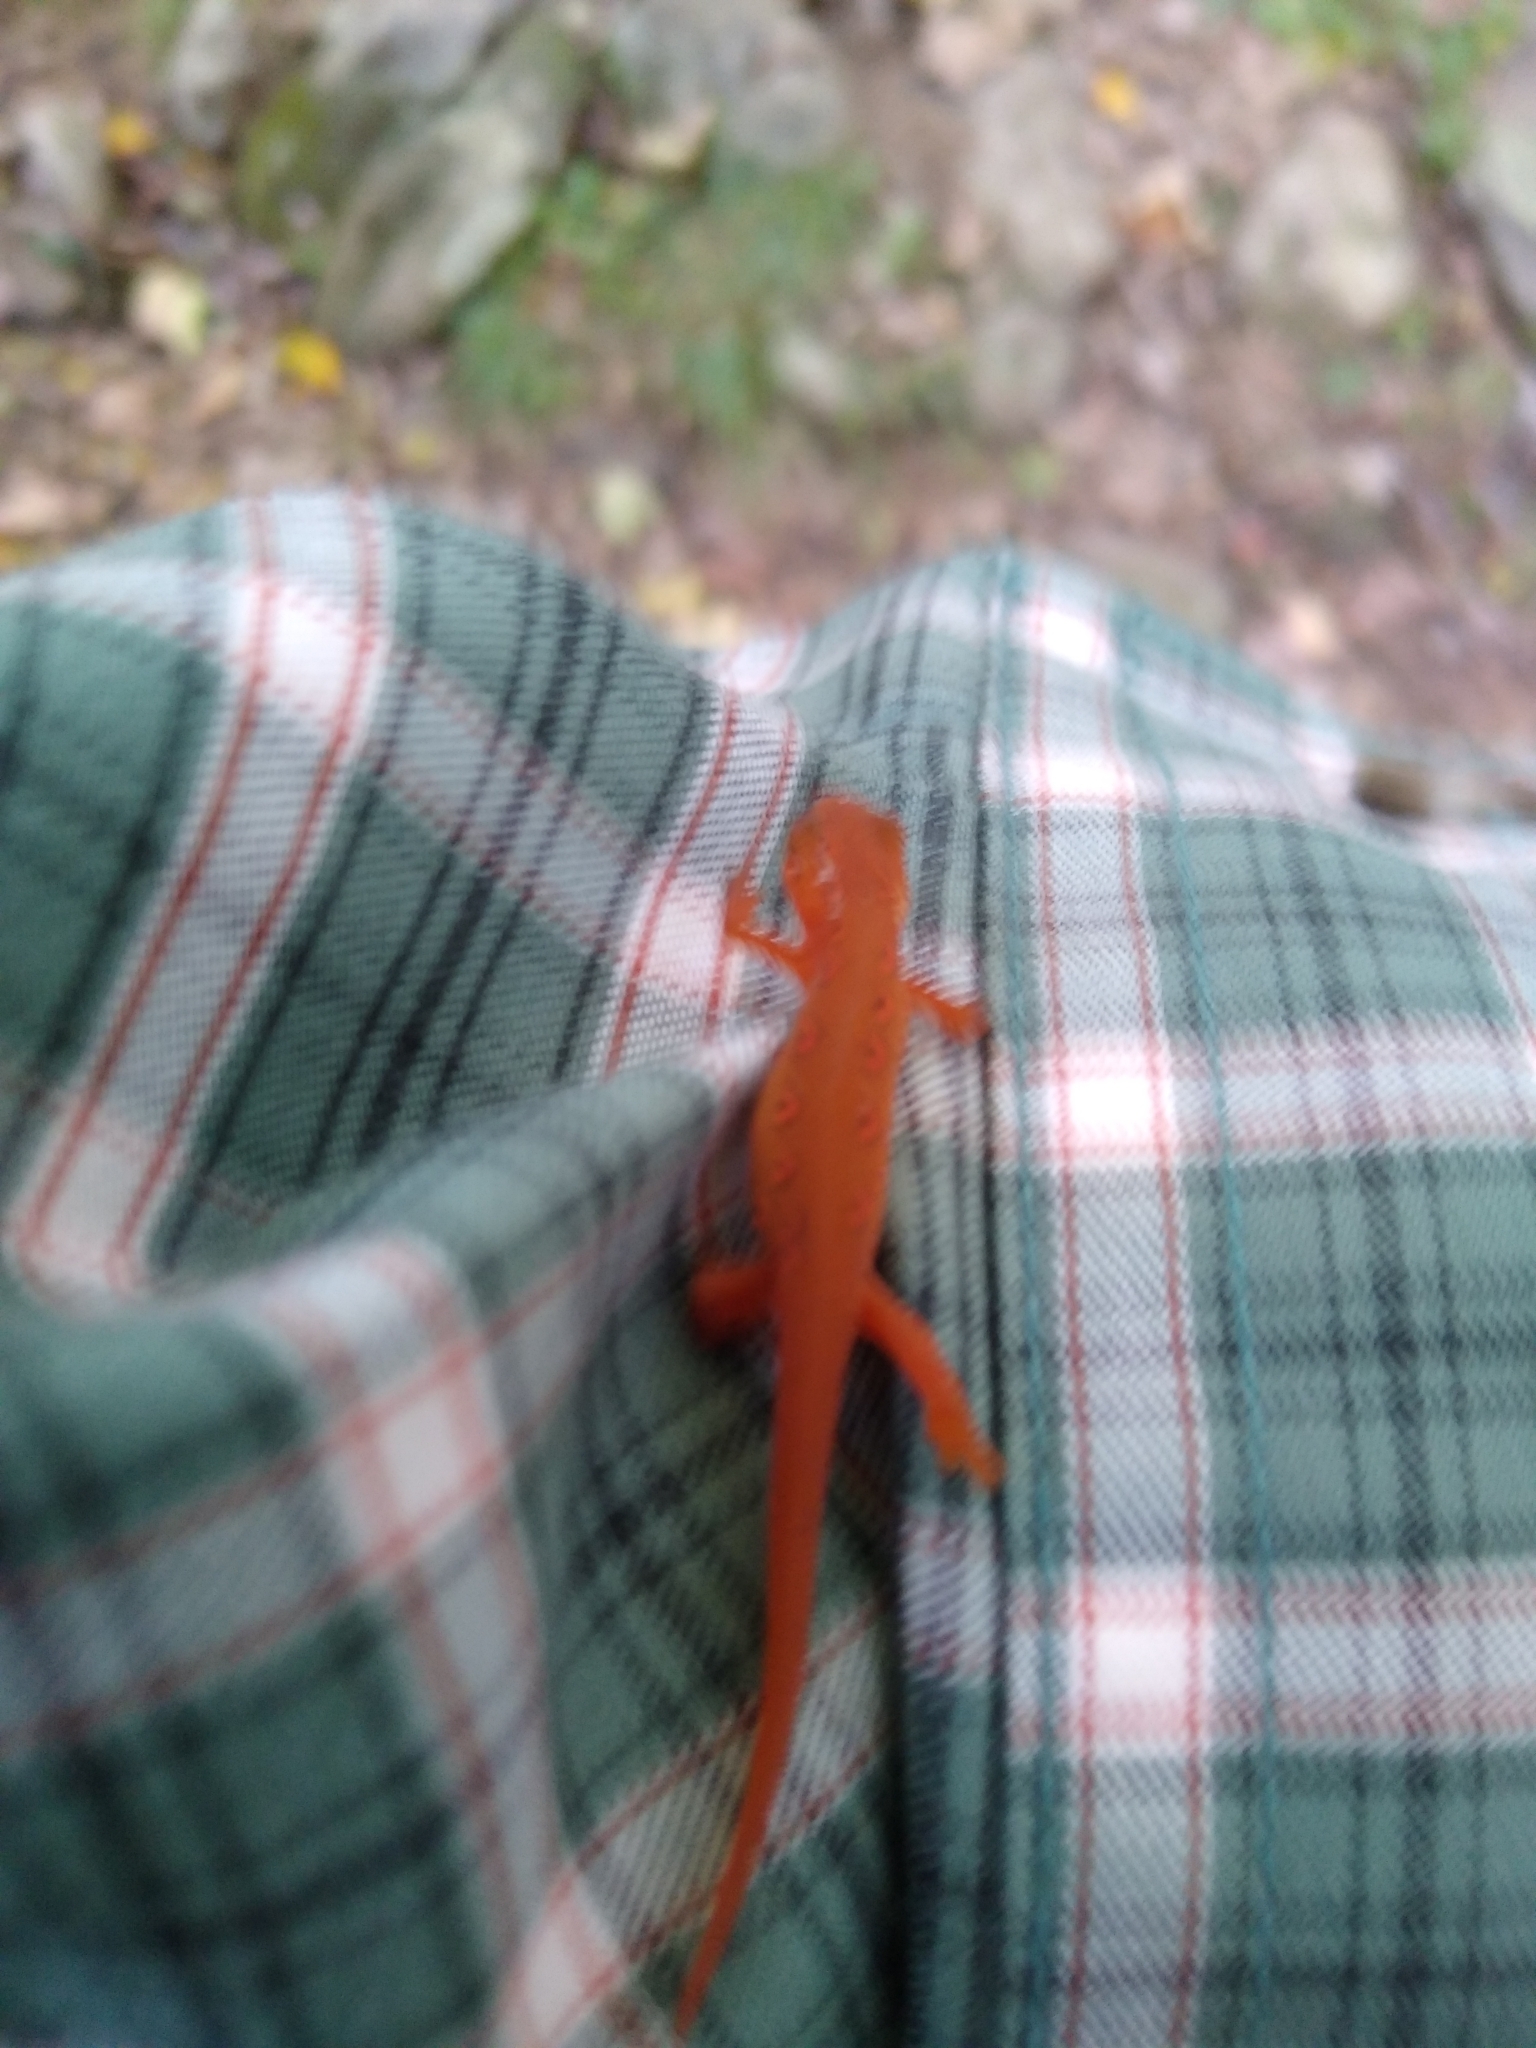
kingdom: Animalia
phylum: Chordata
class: Amphibia
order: Caudata
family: Salamandridae
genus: Notophthalmus
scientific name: Notophthalmus viridescens
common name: Eastern newt
